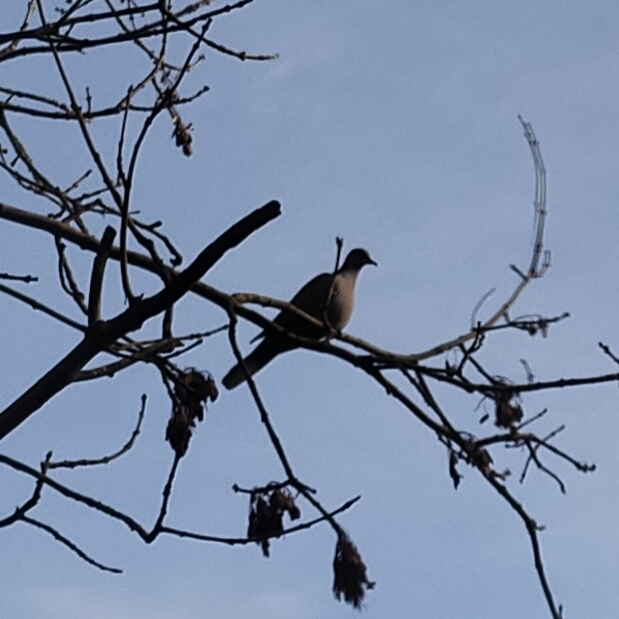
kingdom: Animalia
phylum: Chordata
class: Aves
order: Columbiformes
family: Columbidae
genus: Streptopelia
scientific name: Streptopelia decaocto
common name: Eurasian collared dove
